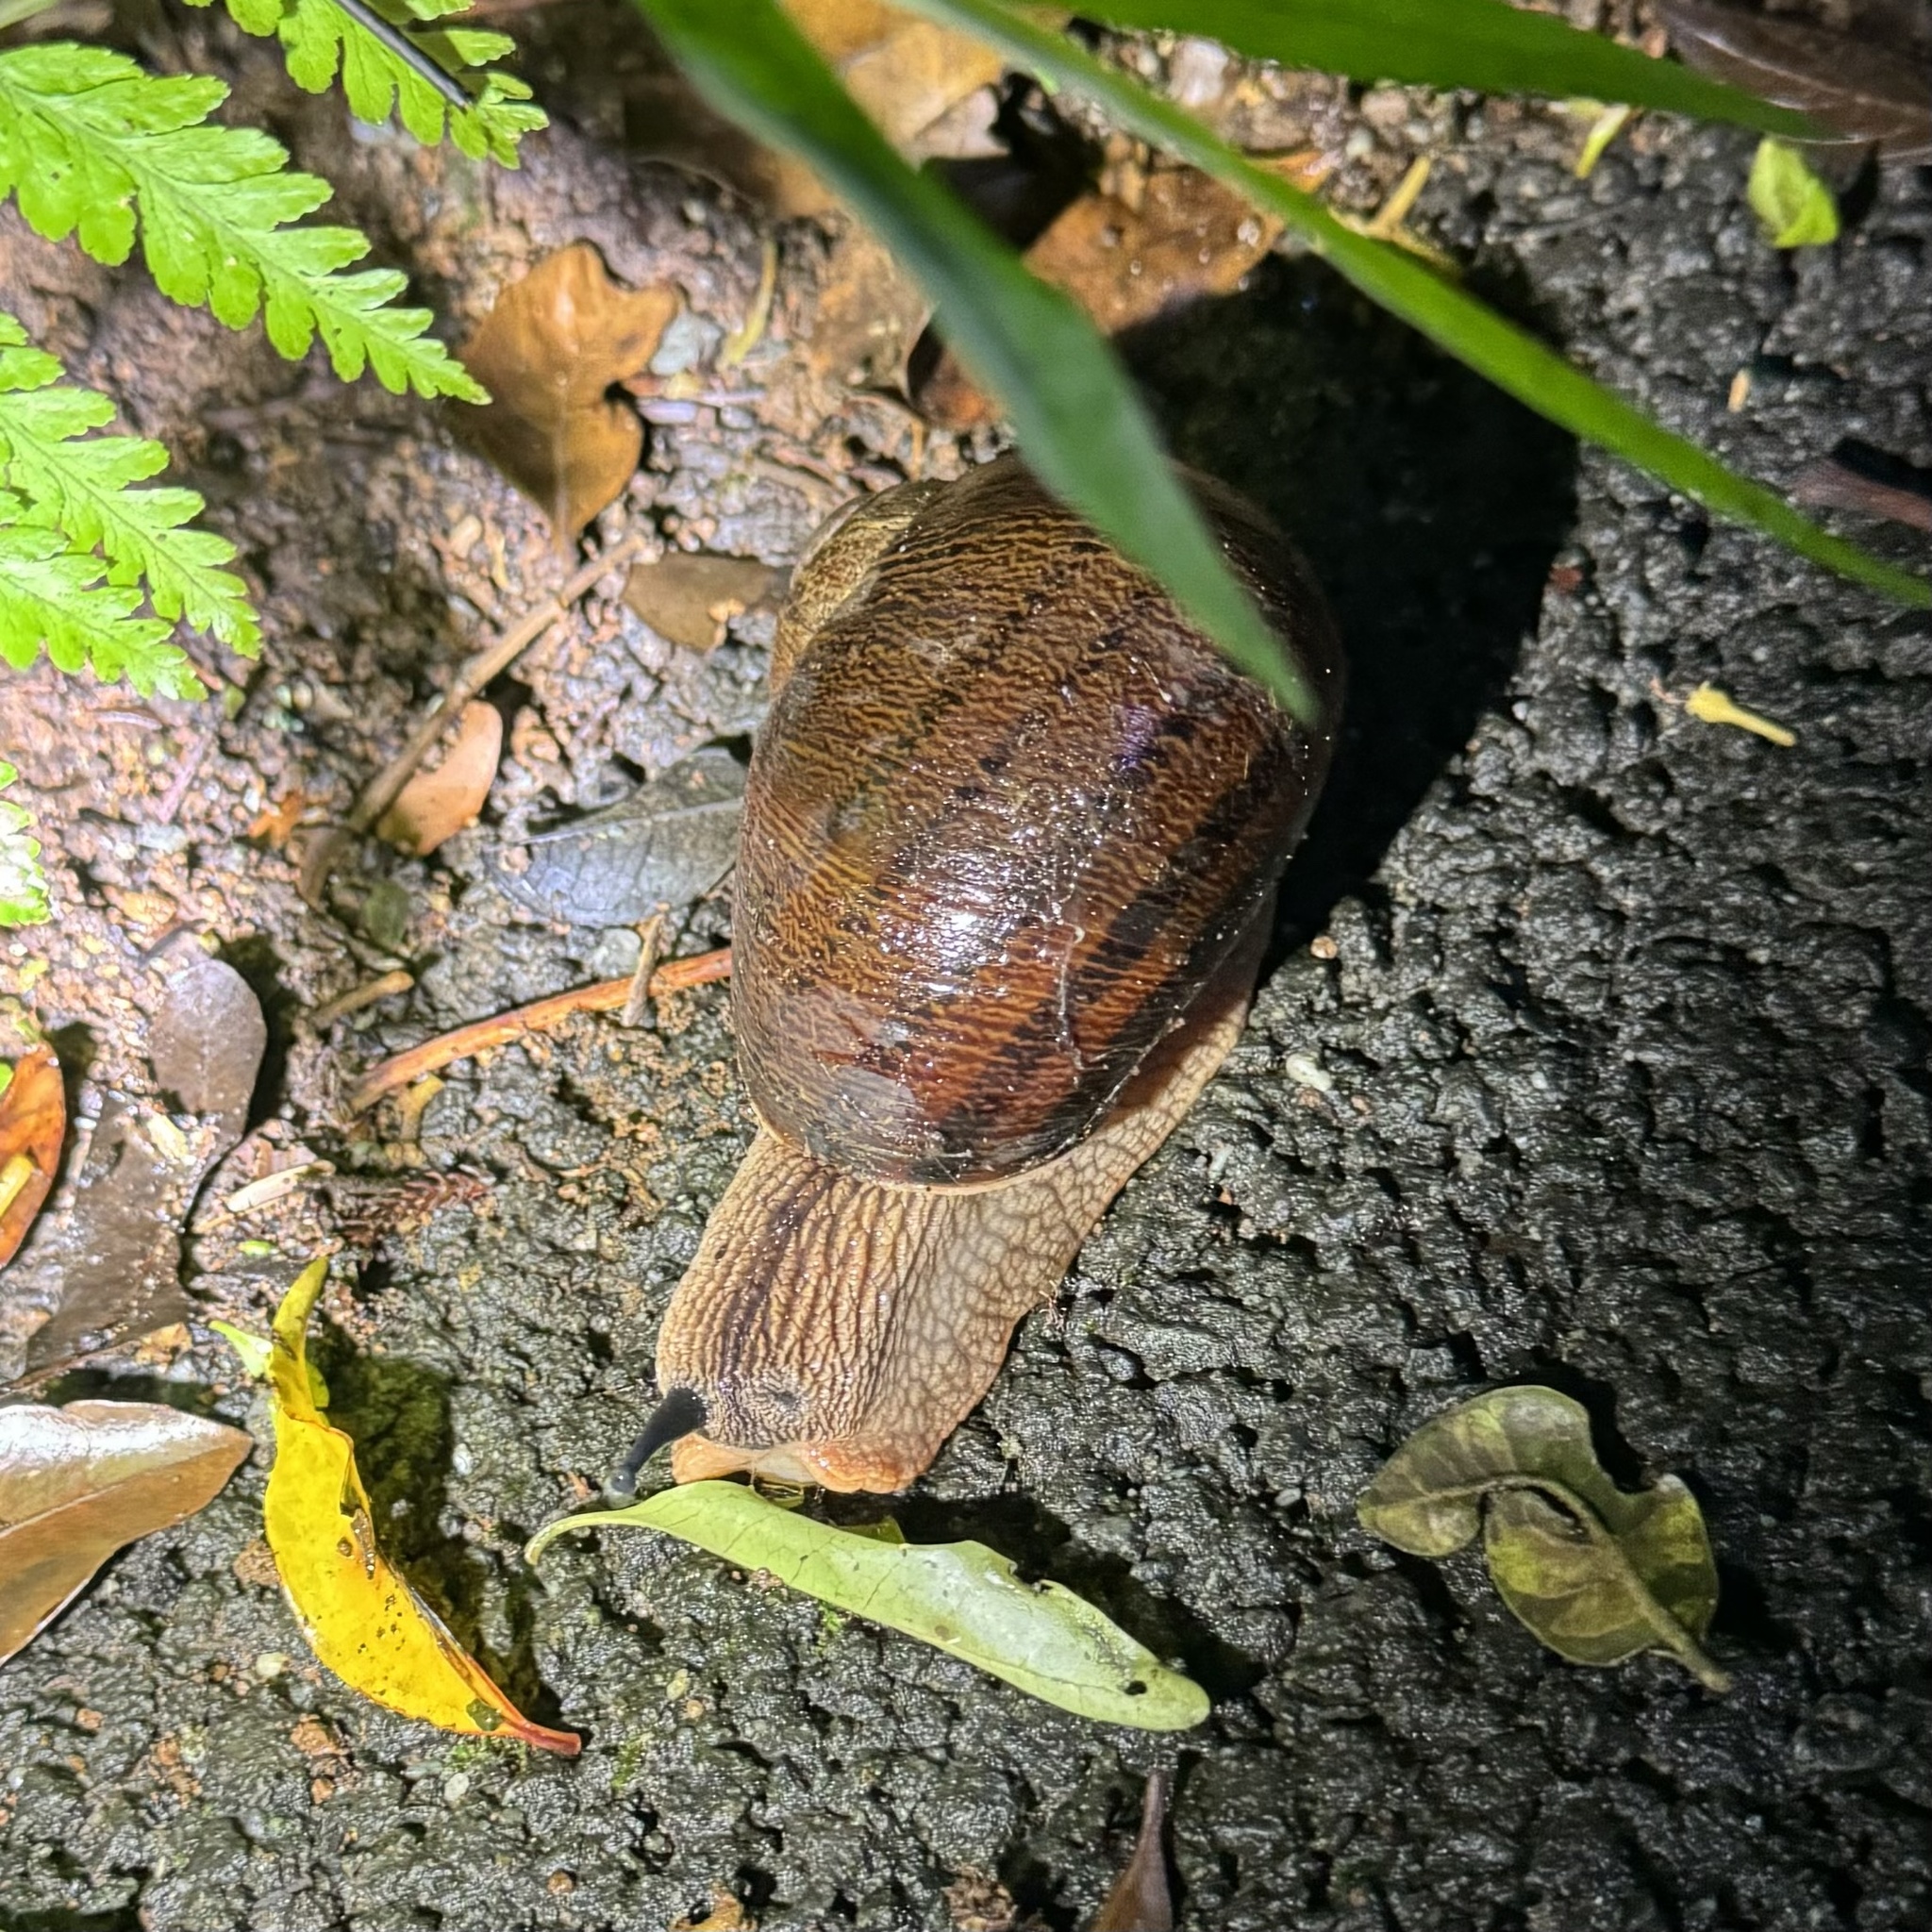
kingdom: Animalia
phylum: Mollusca
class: Gastropoda
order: Stylommatophora
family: Caryodidae
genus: Hedleyella
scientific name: Hedleyella falconeri
